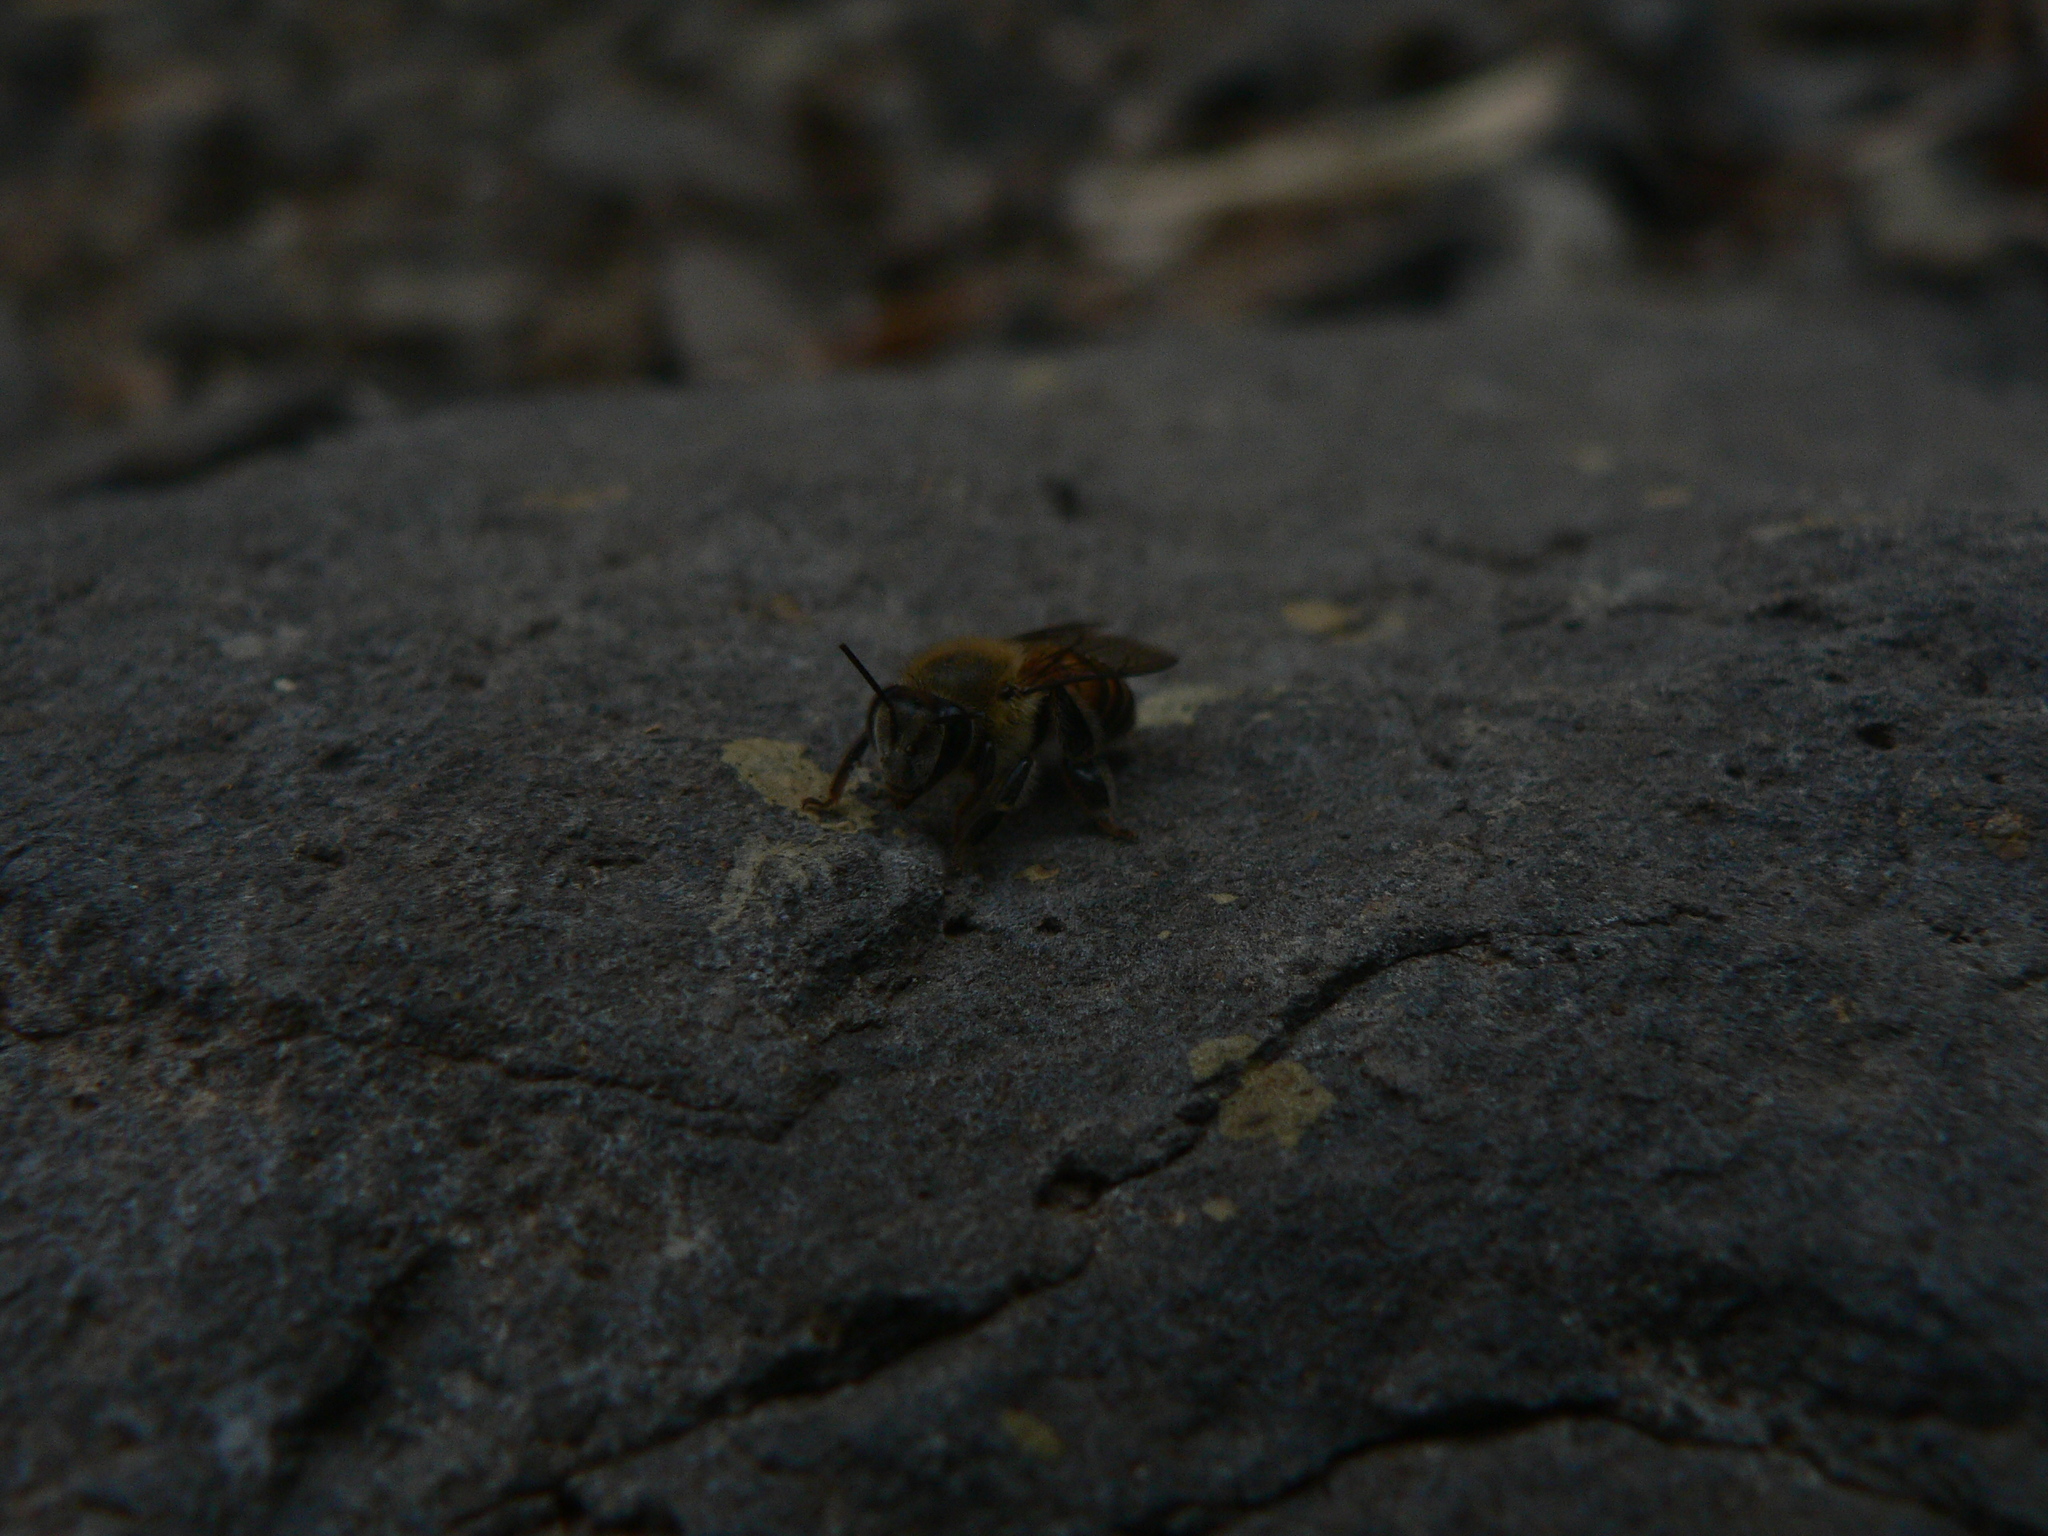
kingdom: Animalia
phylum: Arthropoda
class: Insecta
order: Hymenoptera
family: Apidae
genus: Apis
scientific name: Apis mellifera
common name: Honey bee
